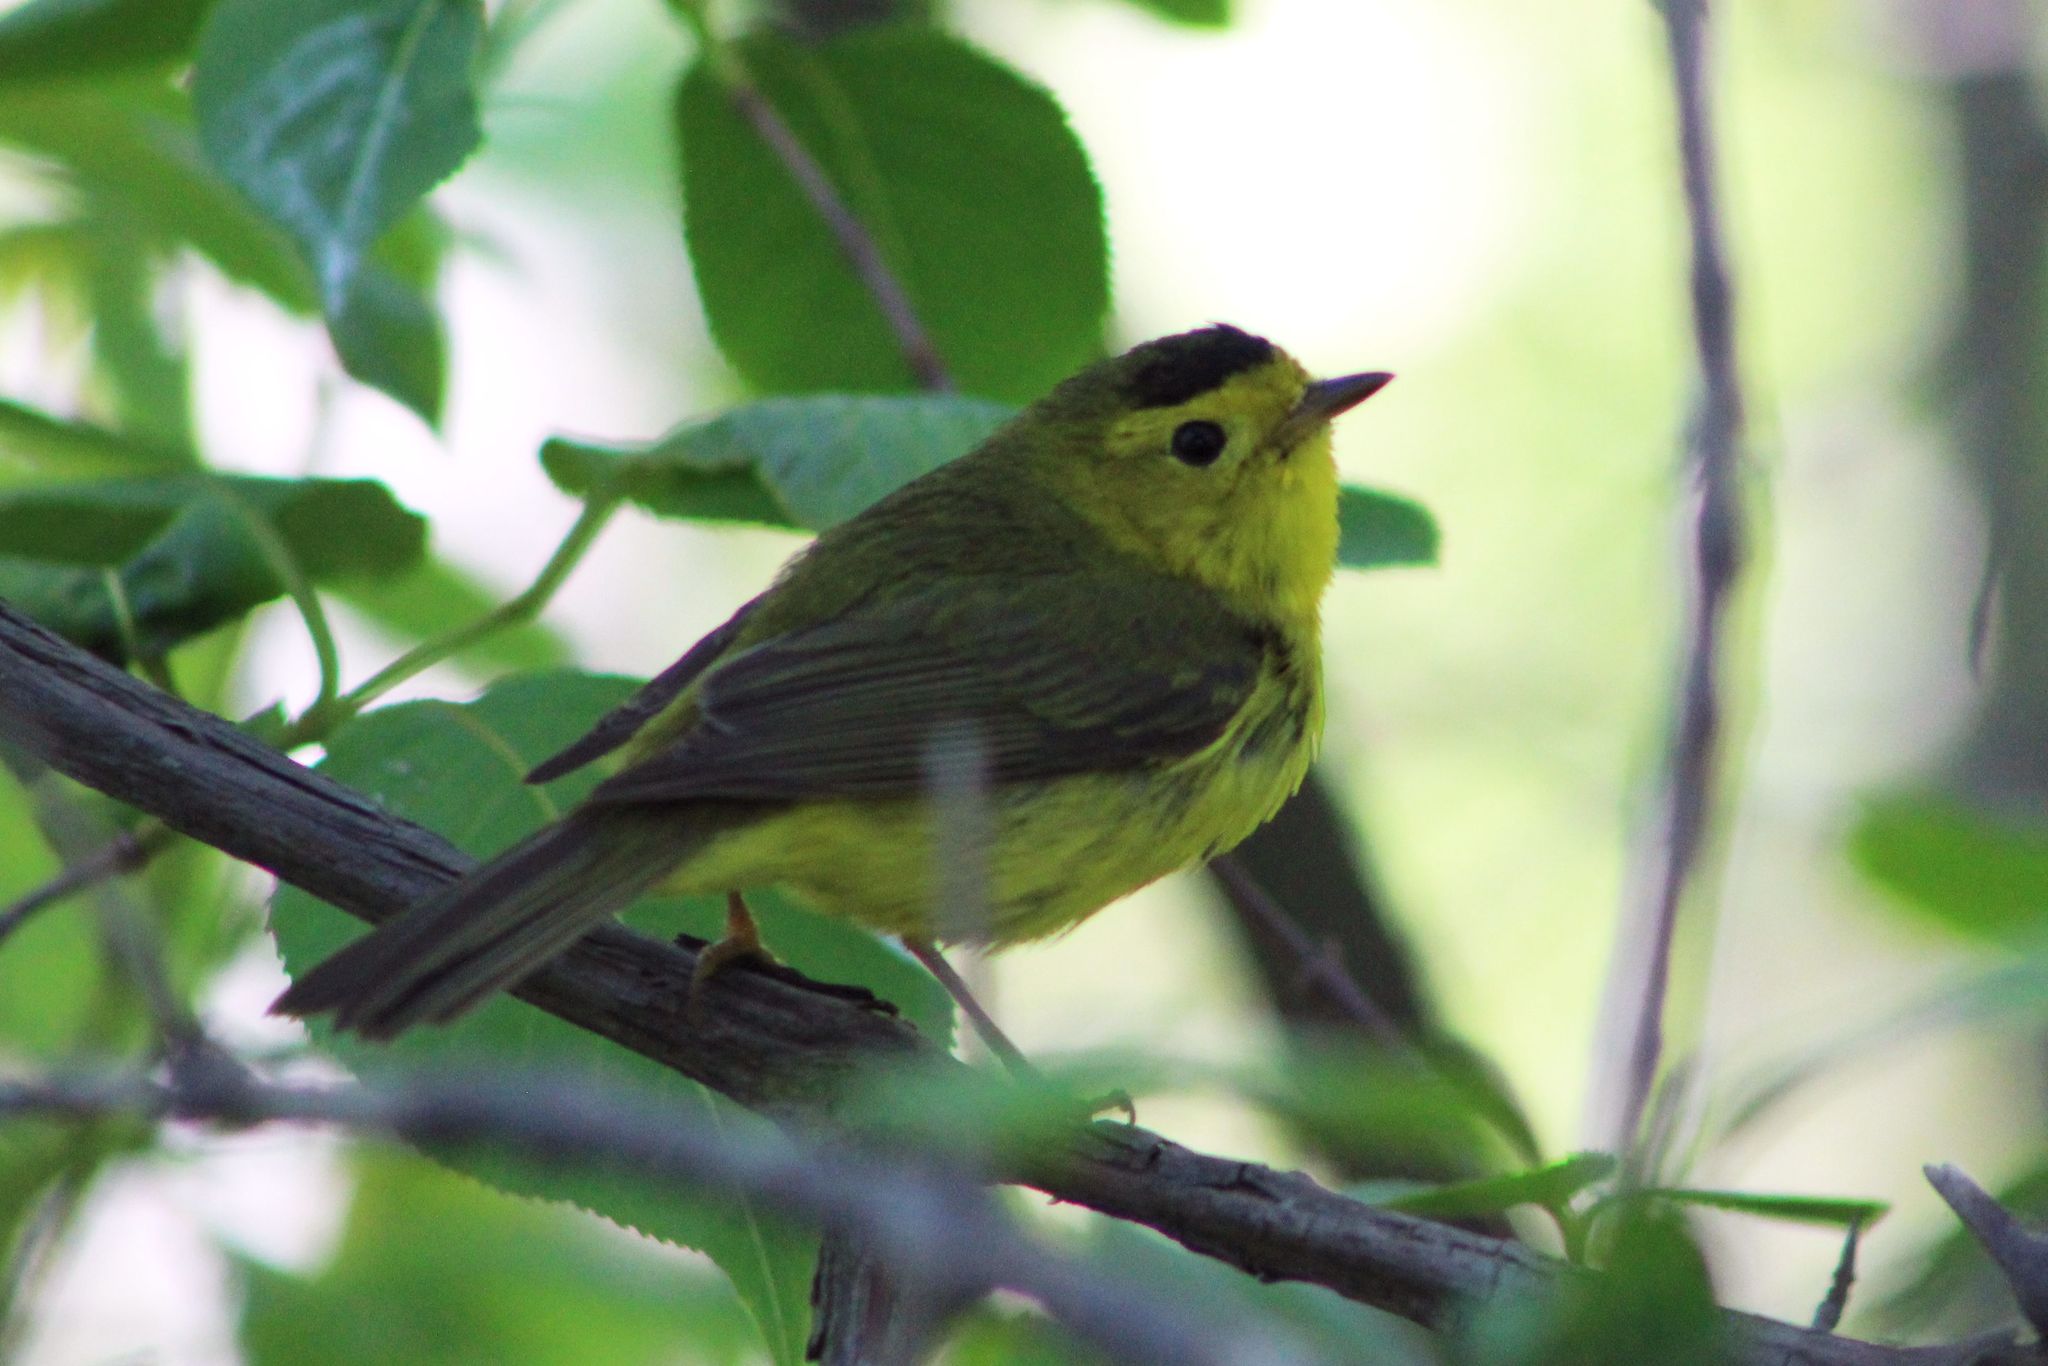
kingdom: Animalia
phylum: Chordata
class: Aves
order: Passeriformes
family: Parulidae
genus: Cardellina
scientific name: Cardellina pusilla
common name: Wilson's warbler
